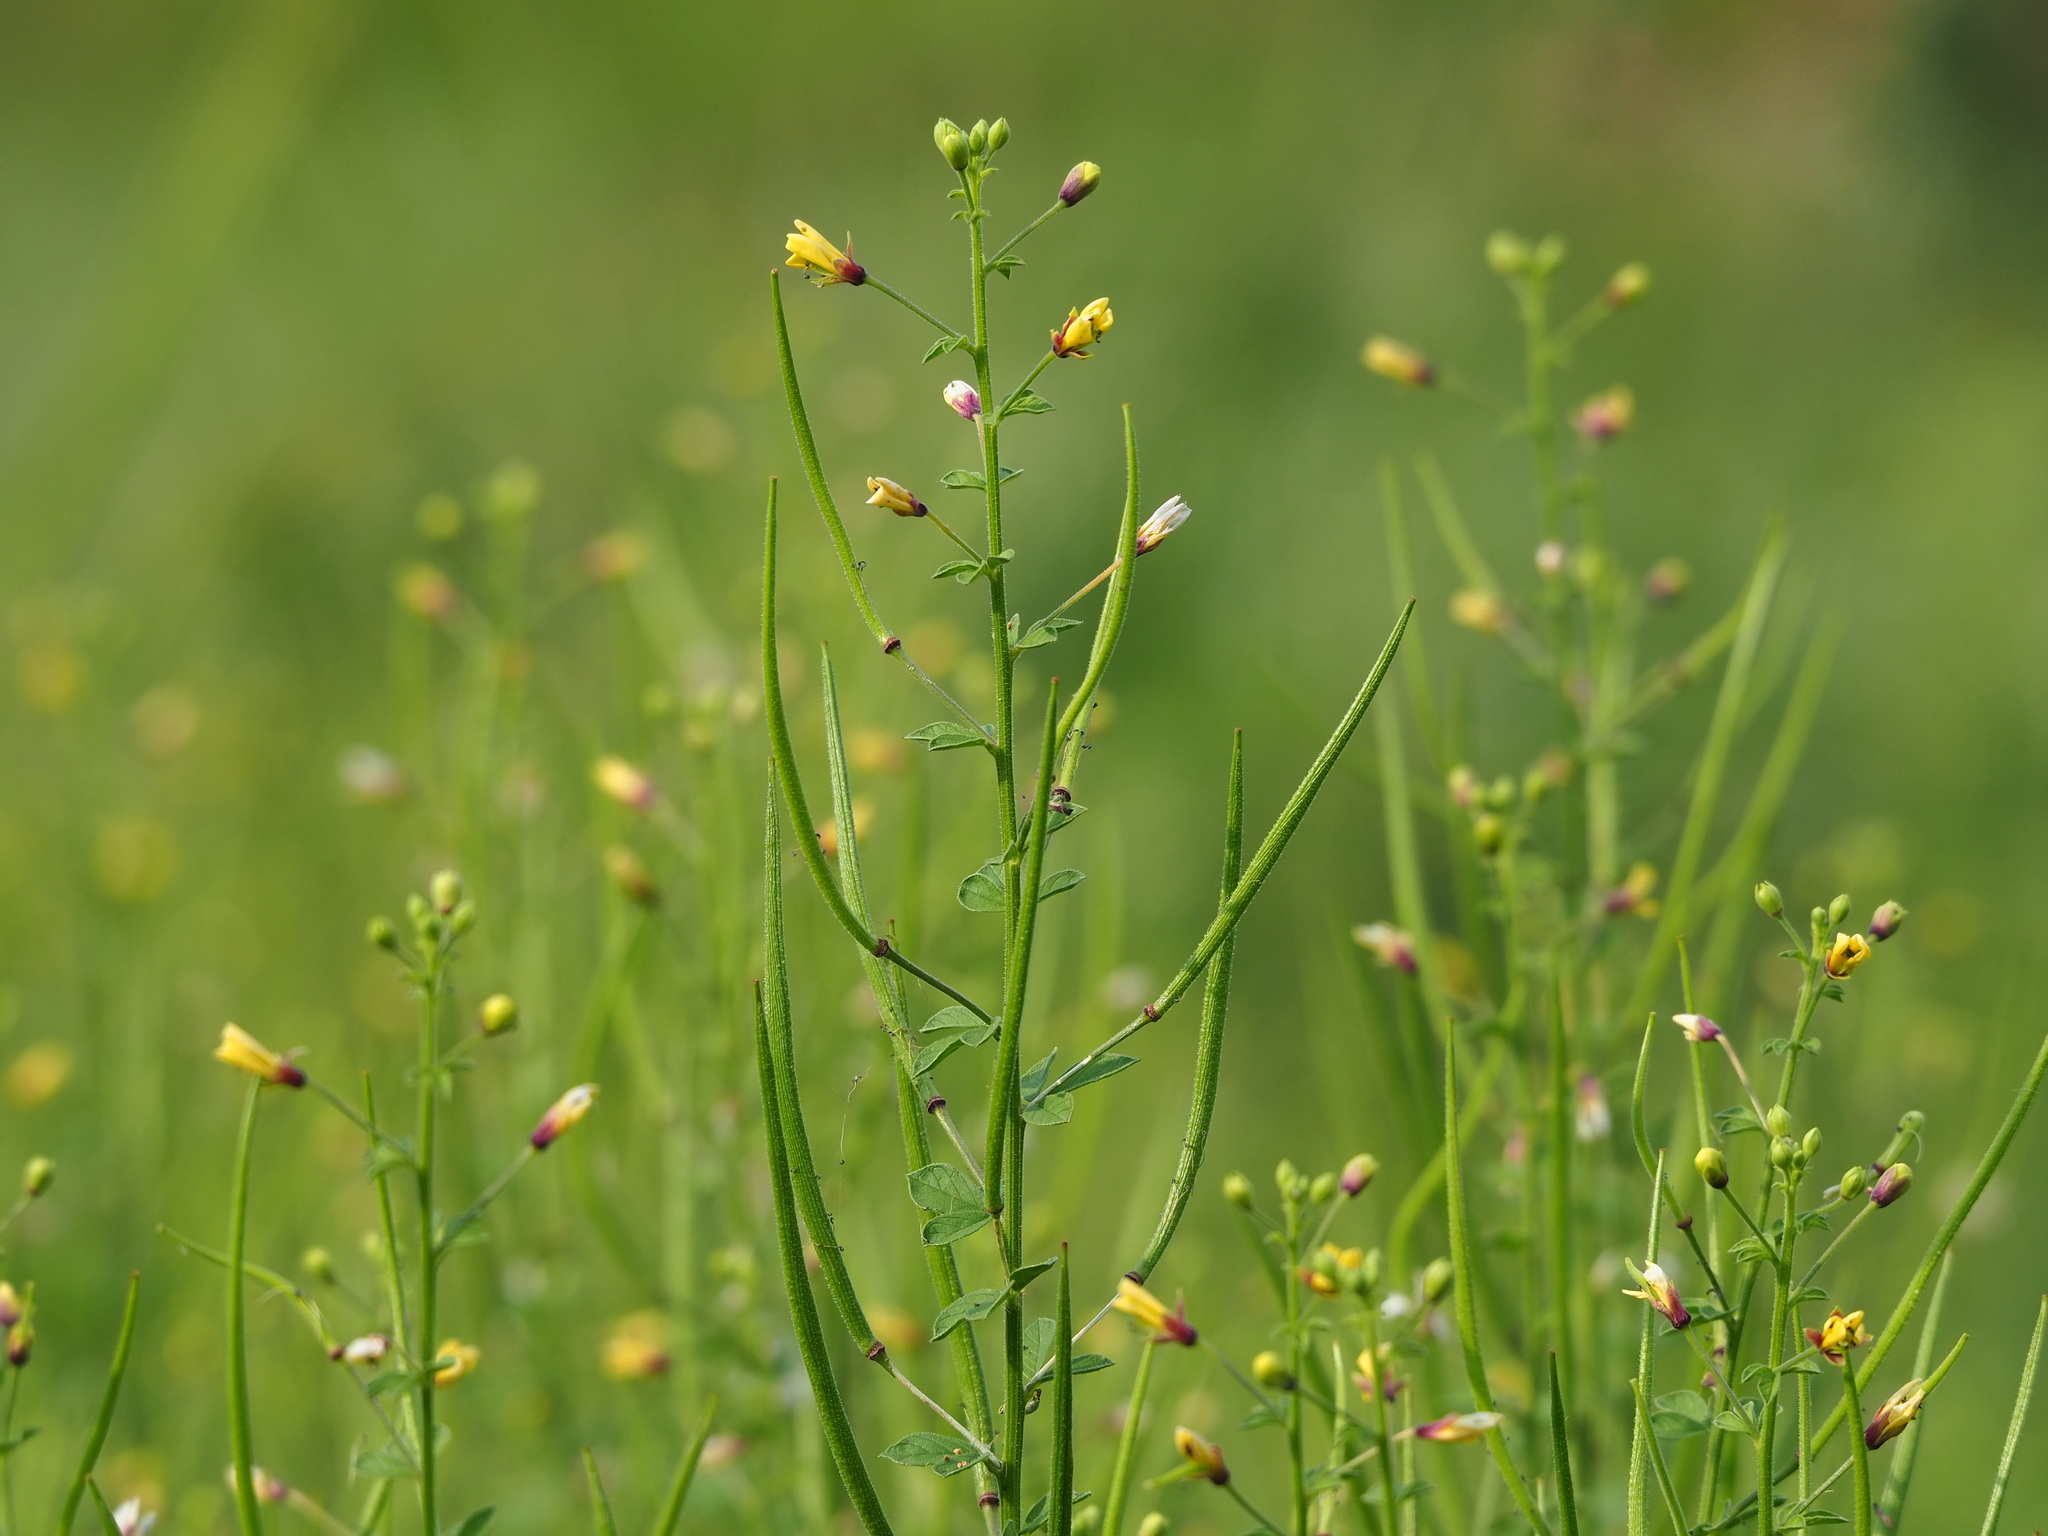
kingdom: Plantae
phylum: Tracheophyta
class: Magnoliopsida
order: Brassicales
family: Cleomaceae
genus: Arivela
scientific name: Arivela viscosa
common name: Asian spiderflower
